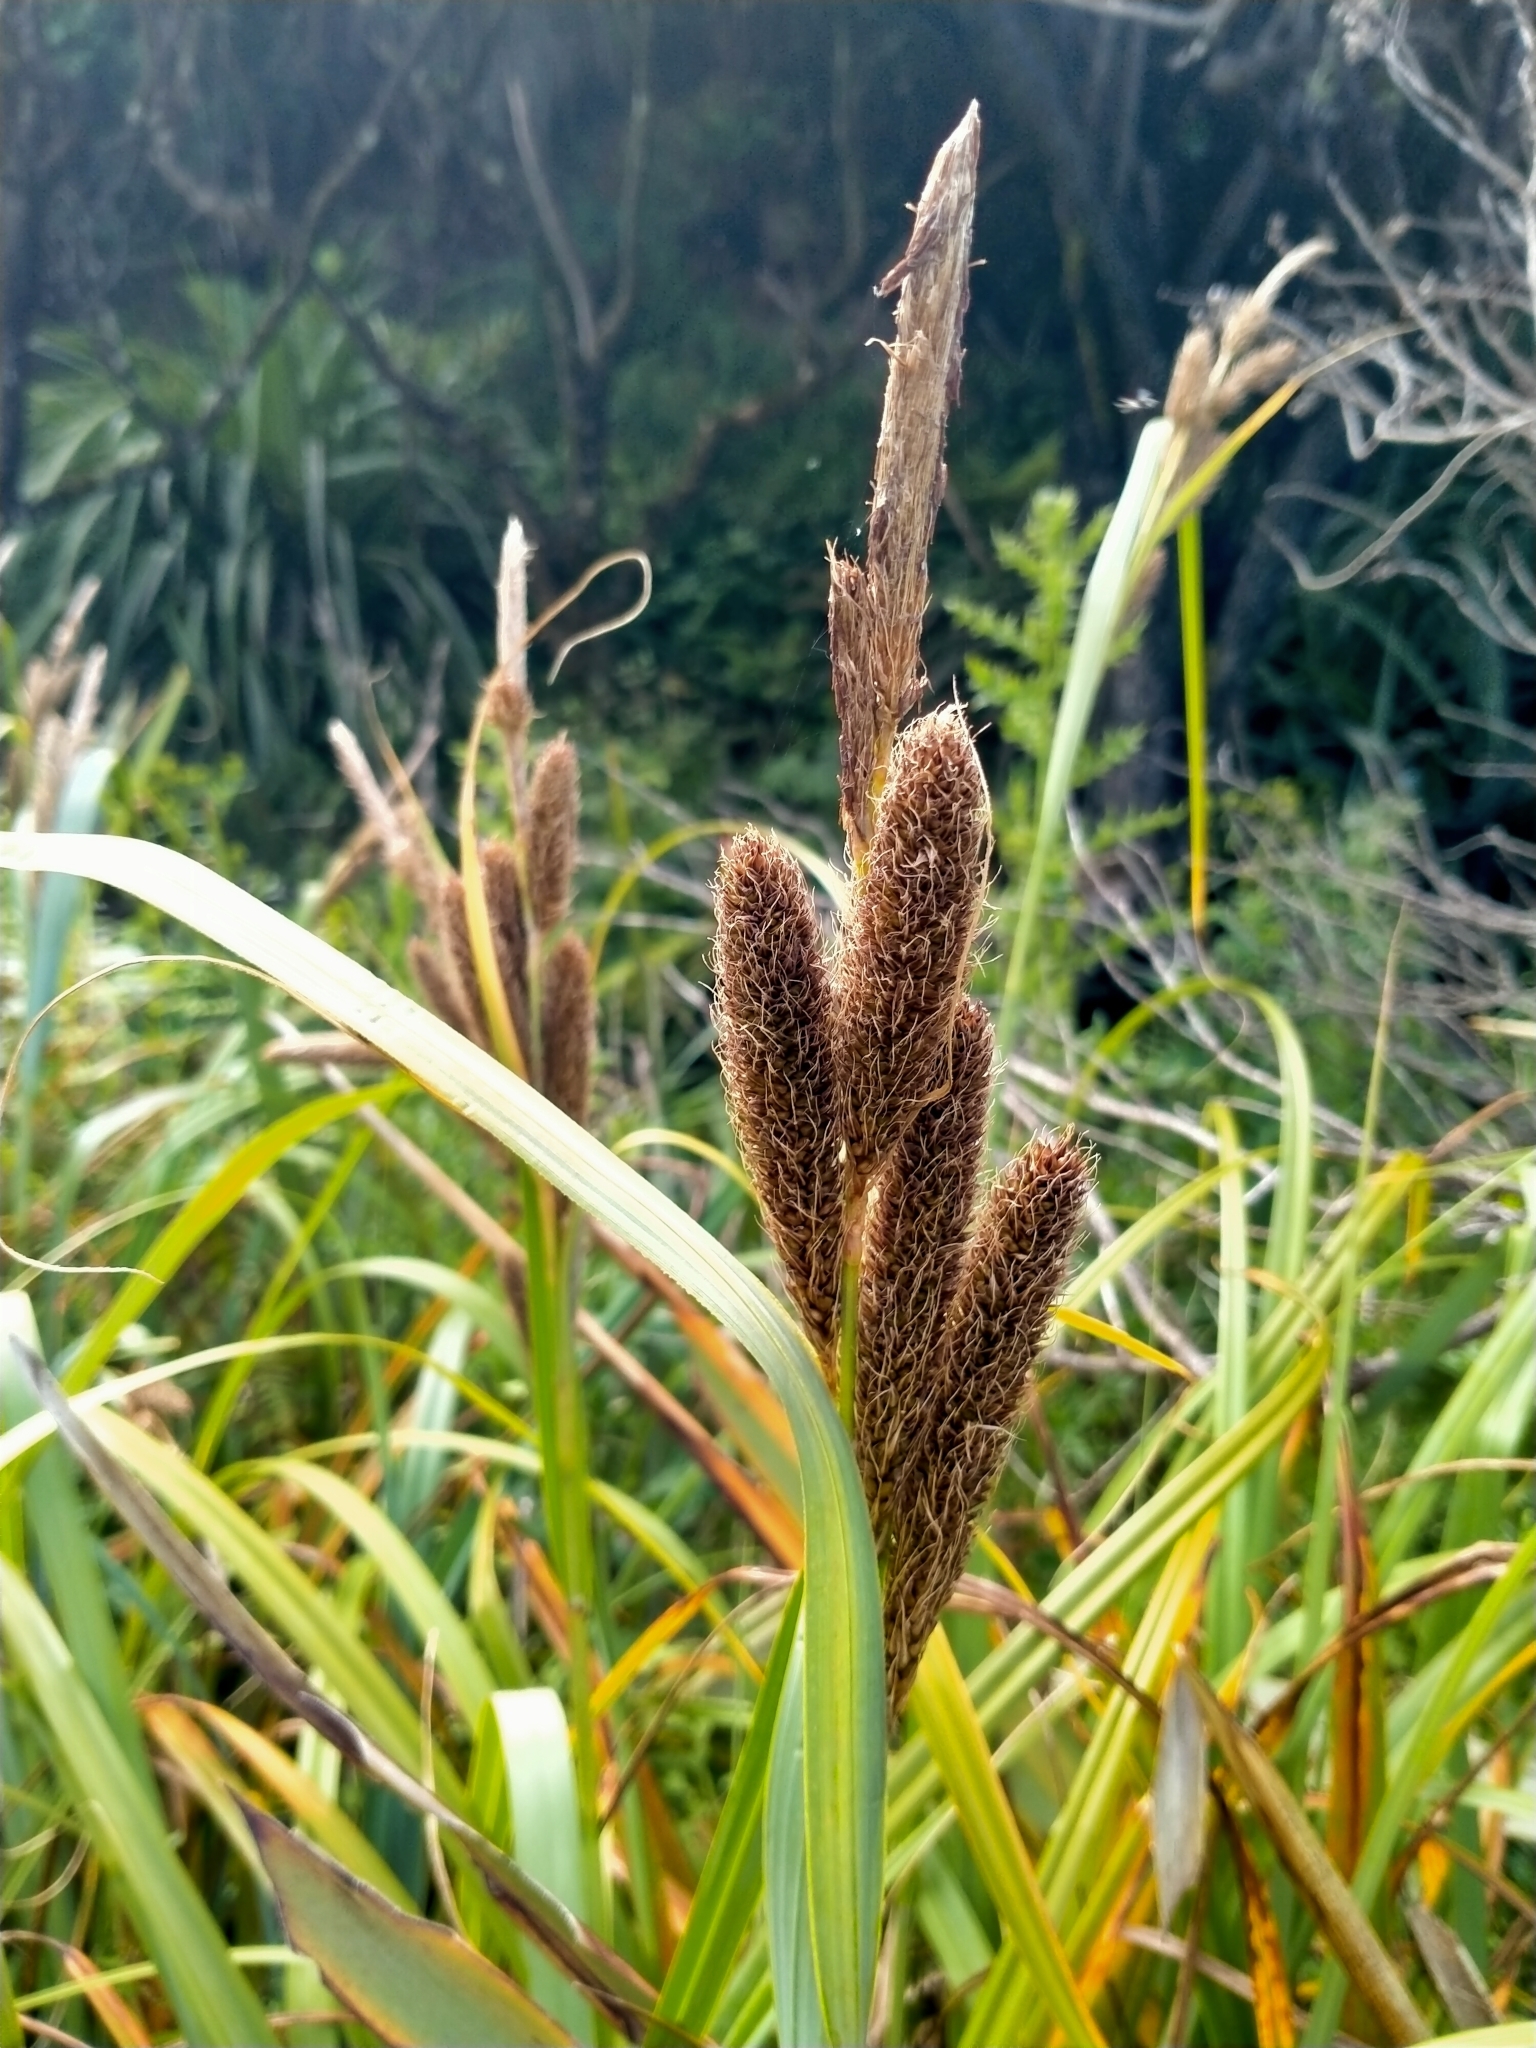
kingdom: Plantae
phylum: Tracheophyta
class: Liliopsida
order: Poales
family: Cyperaceae
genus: Carex
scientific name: Carex trifida
